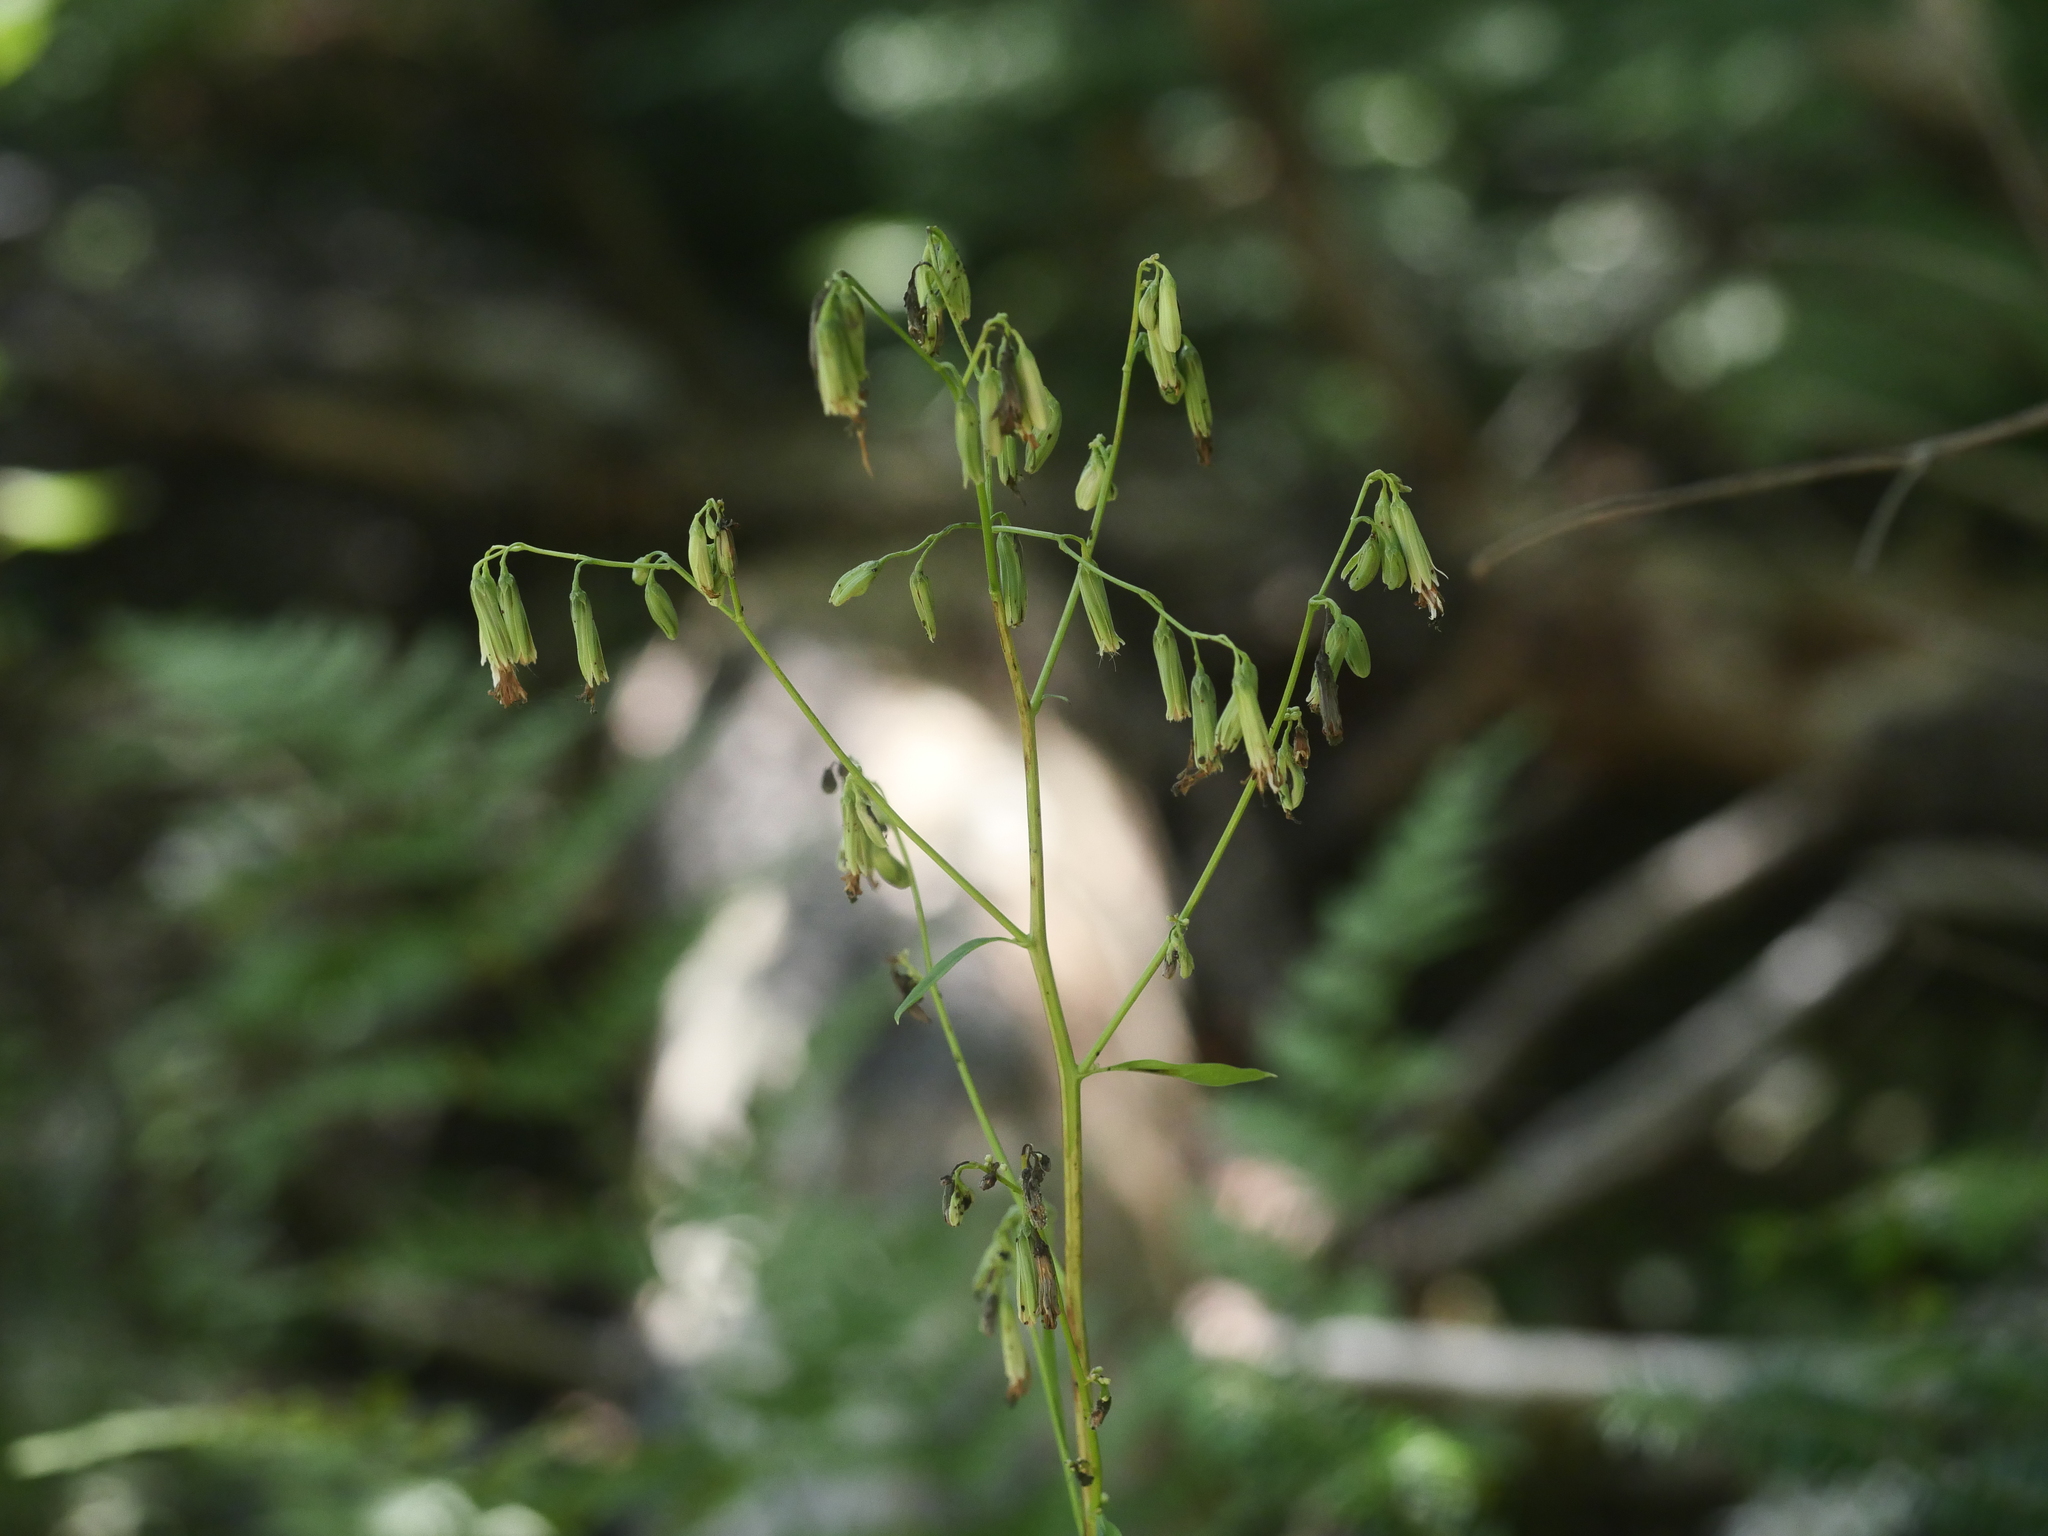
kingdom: Plantae
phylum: Tracheophyta
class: Magnoliopsida
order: Asterales
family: Asteraceae
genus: Nabalus
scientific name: Nabalus trifoliolatus
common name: Gall-of-the-earth
